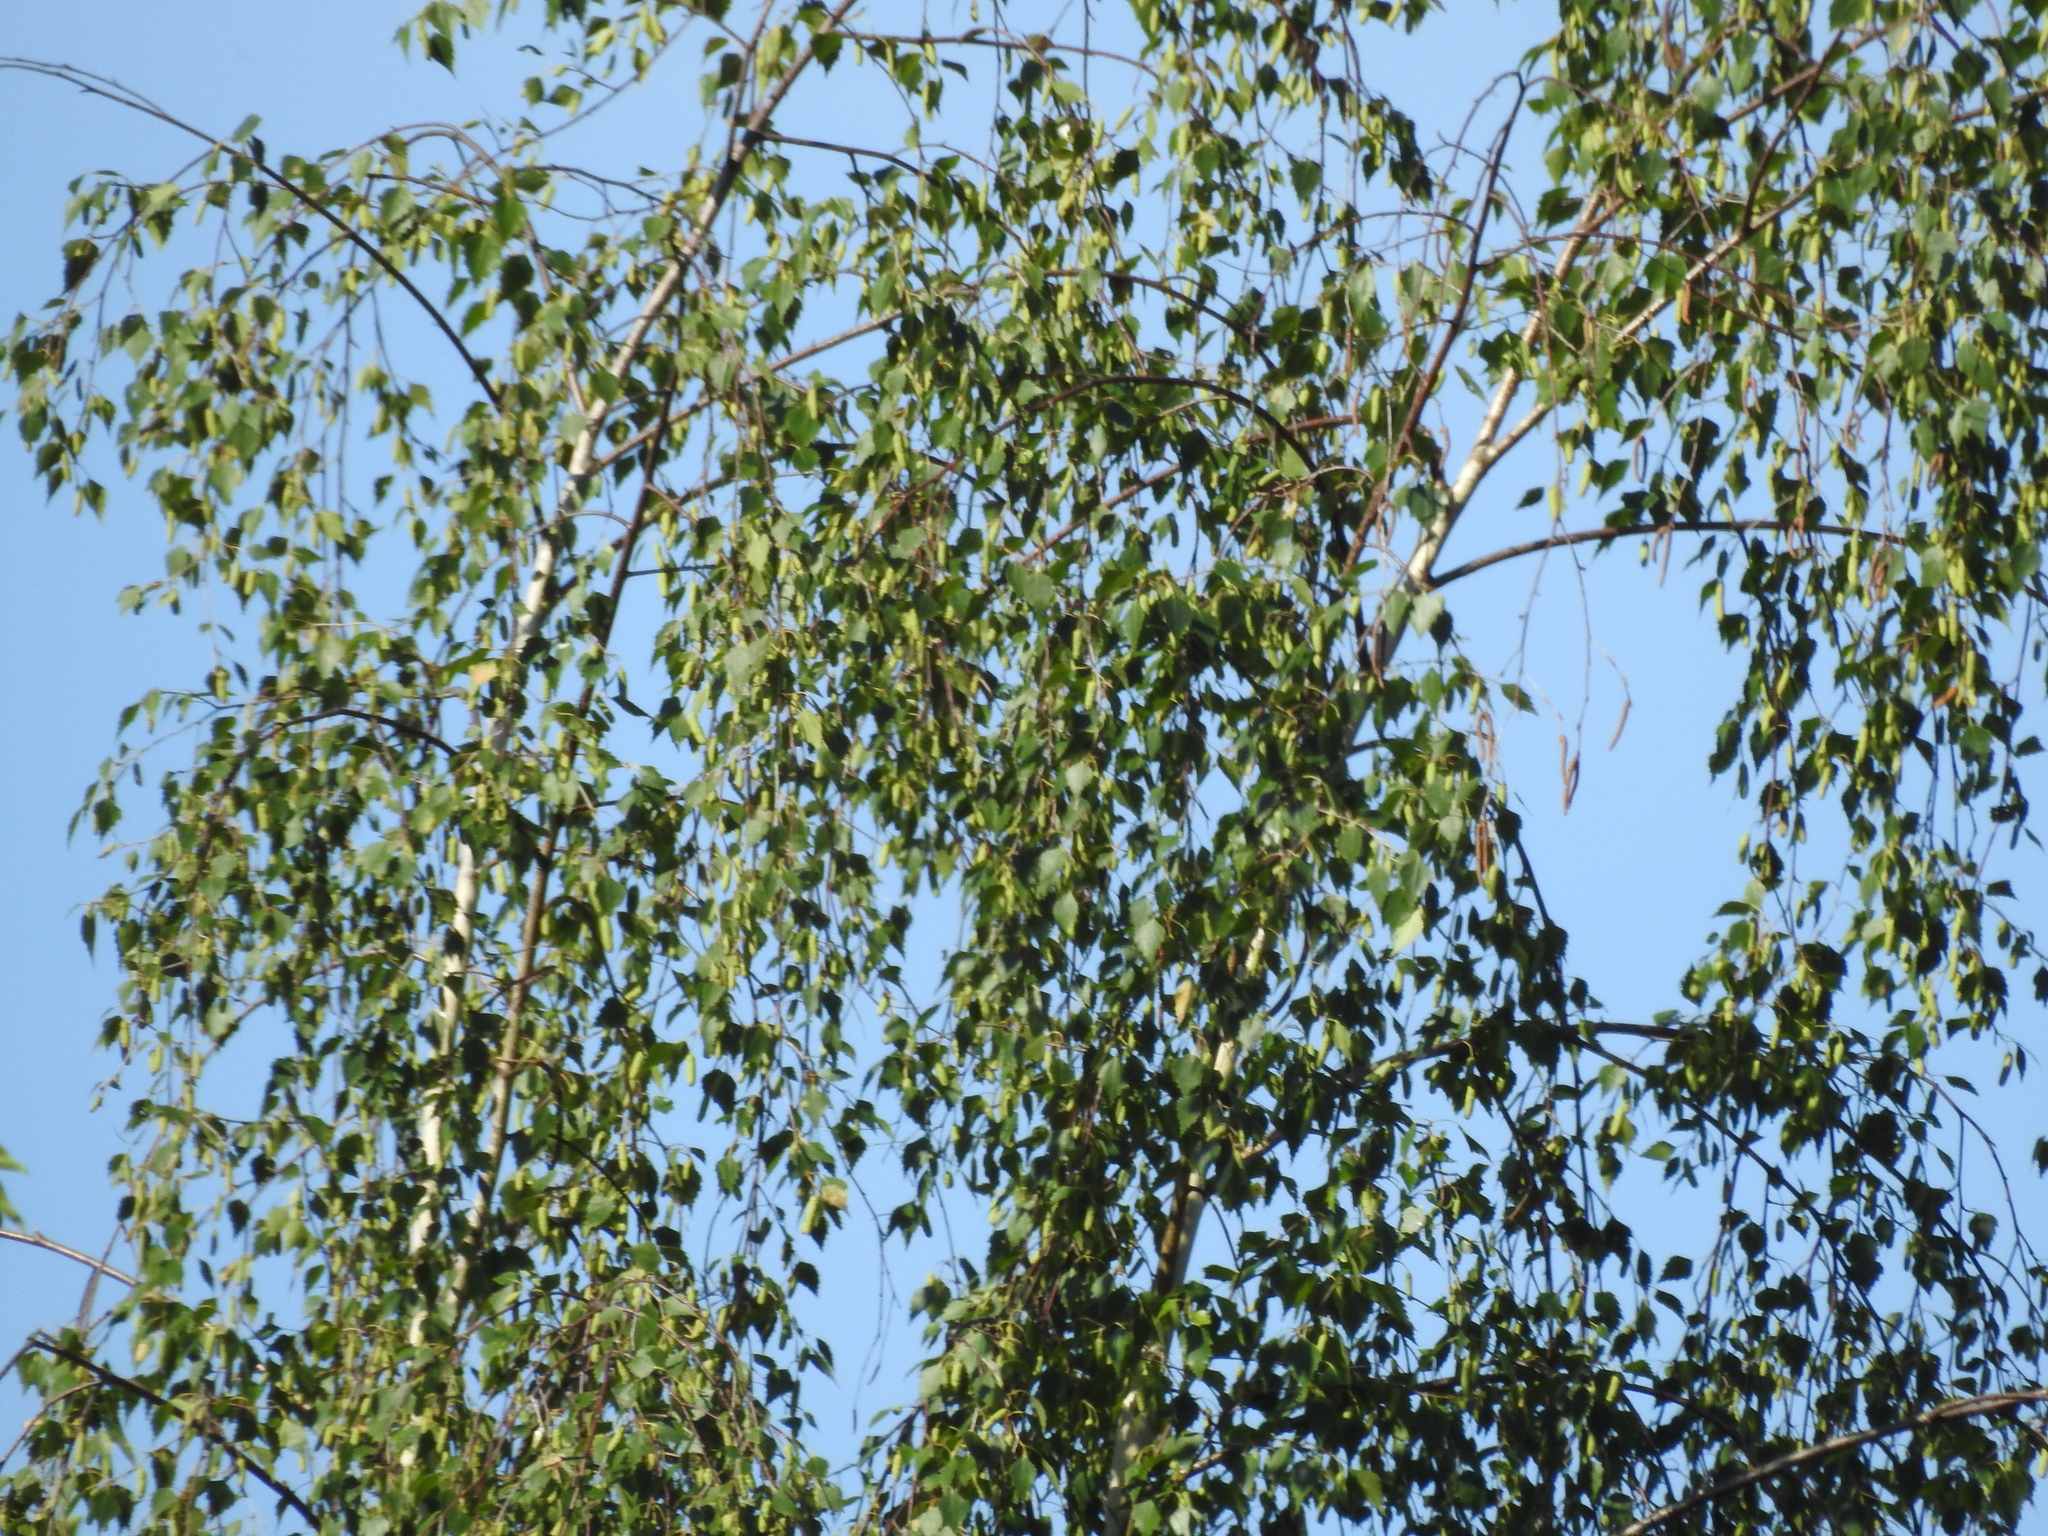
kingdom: Plantae
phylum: Tracheophyta
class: Magnoliopsida
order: Fagales
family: Betulaceae
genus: Betula
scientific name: Betula pendula
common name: Silver birch
